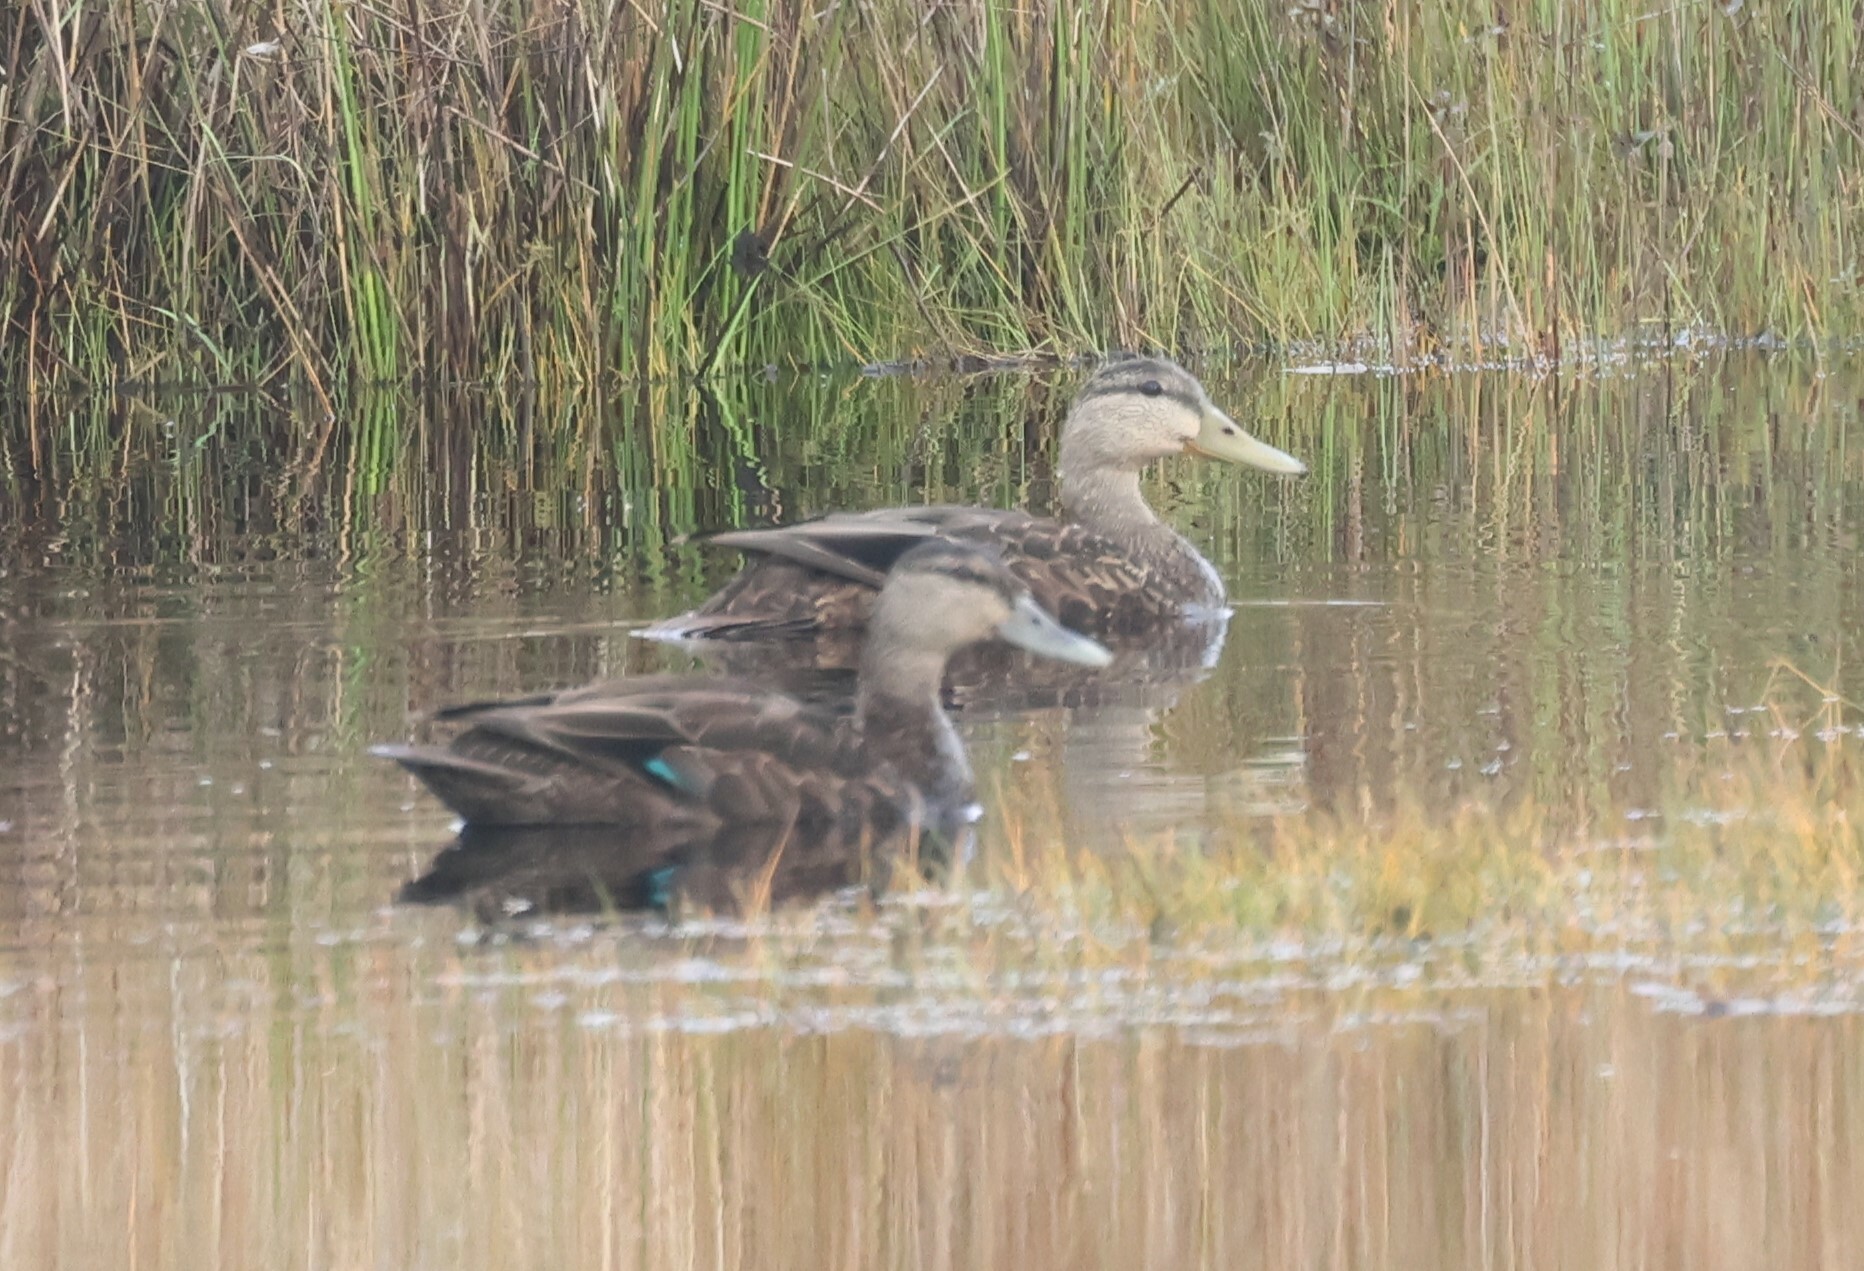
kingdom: Animalia
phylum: Chordata
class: Aves
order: Anseriformes
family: Anatidae
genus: Anas
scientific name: Anas rubripes
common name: American black duck
